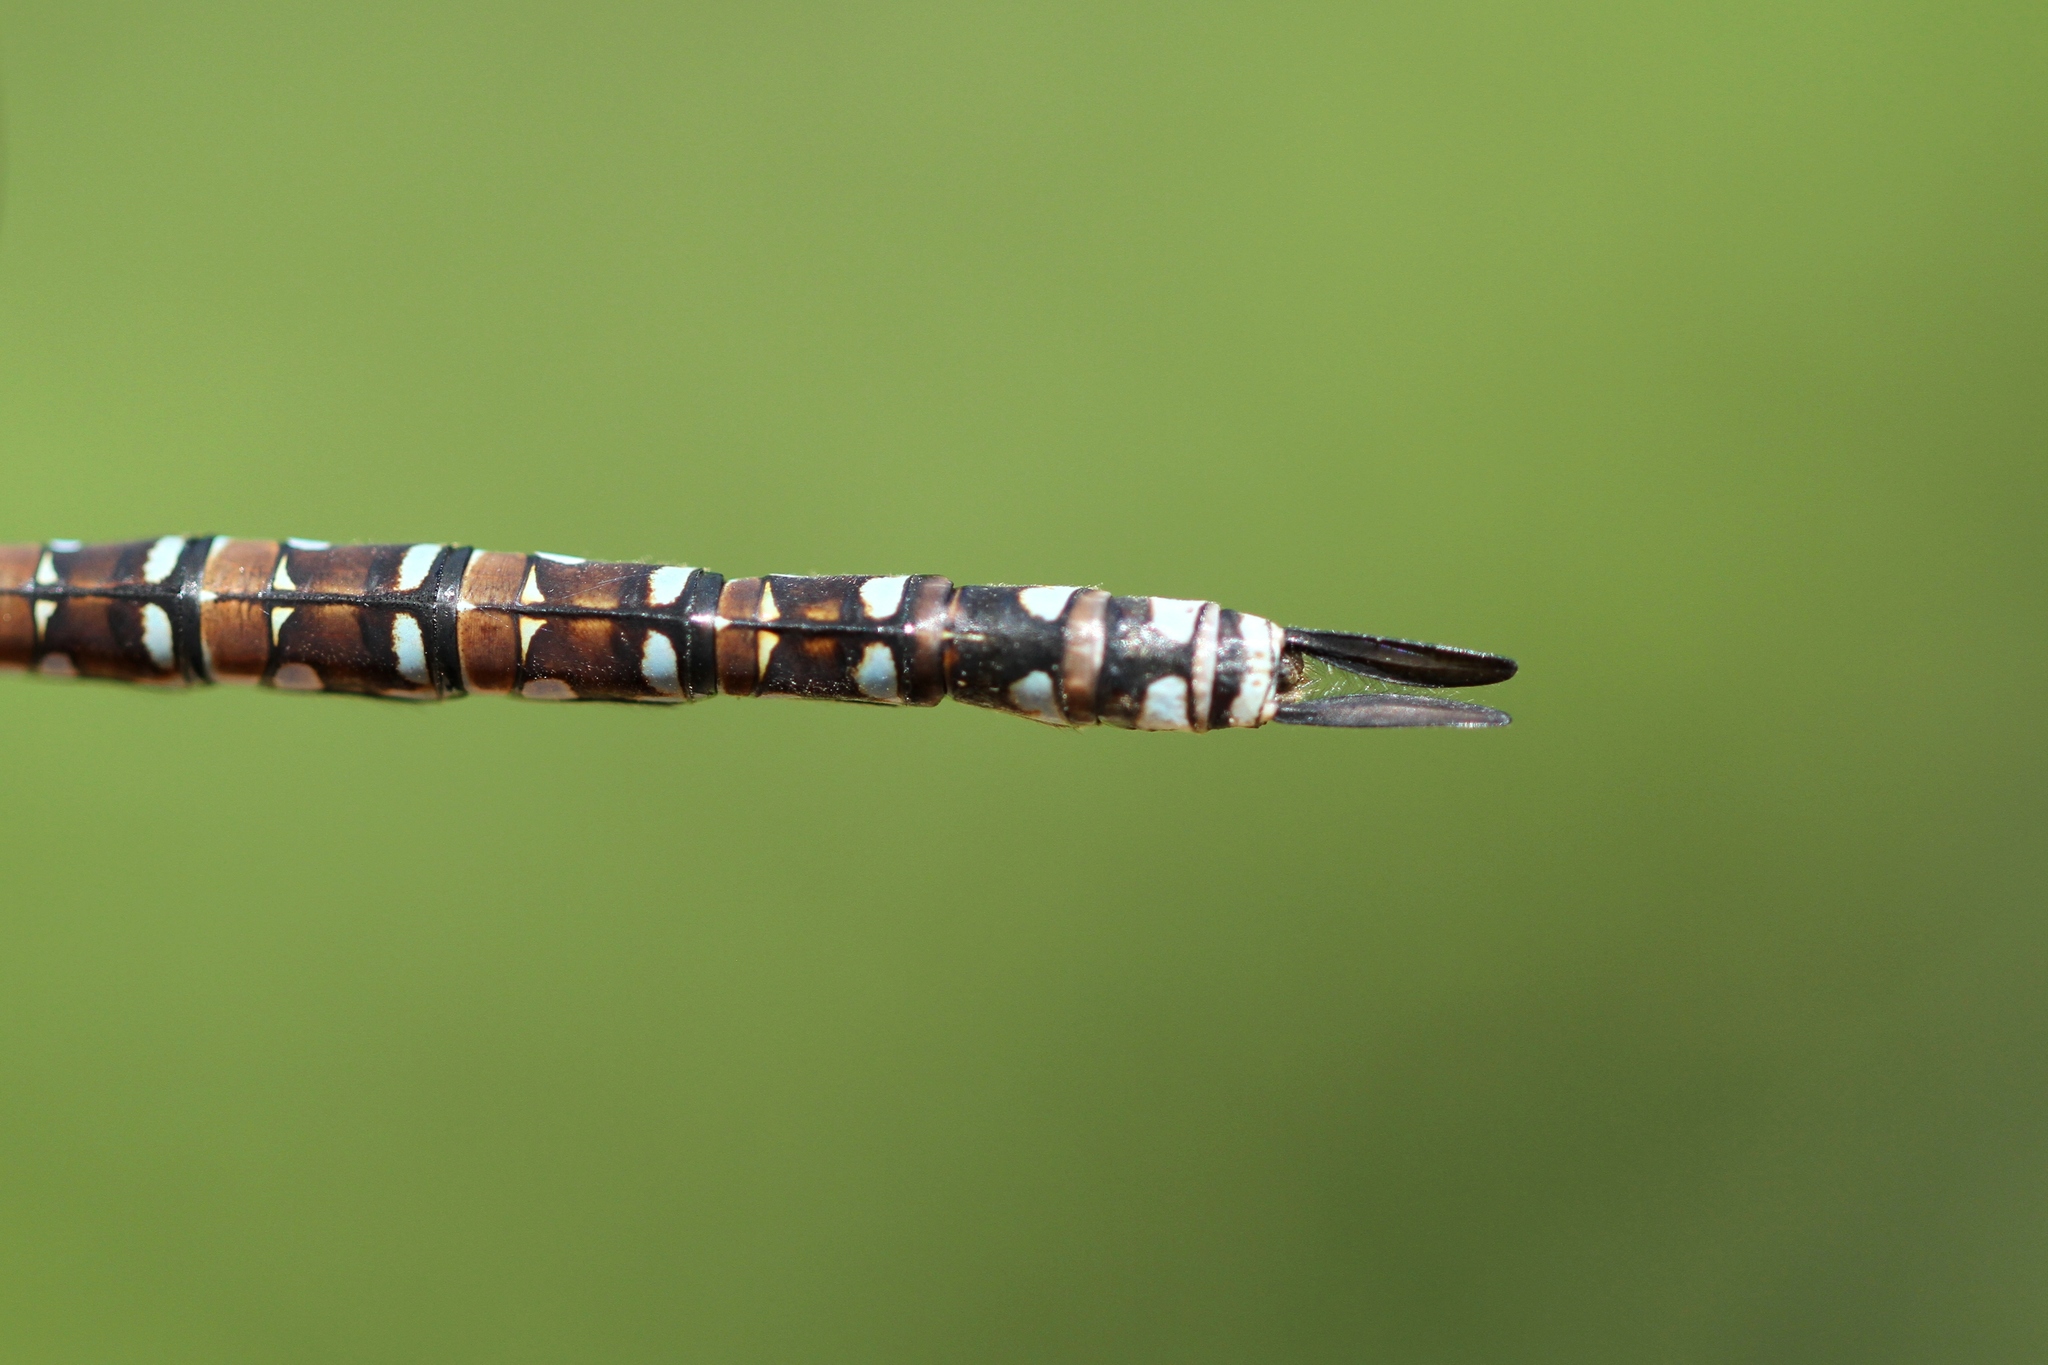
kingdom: Animalia
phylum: Arthropoda
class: Insecta
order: Odonata
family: Aeshnidae
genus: Aeshna
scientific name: Aeshna eremita
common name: Lake darner
